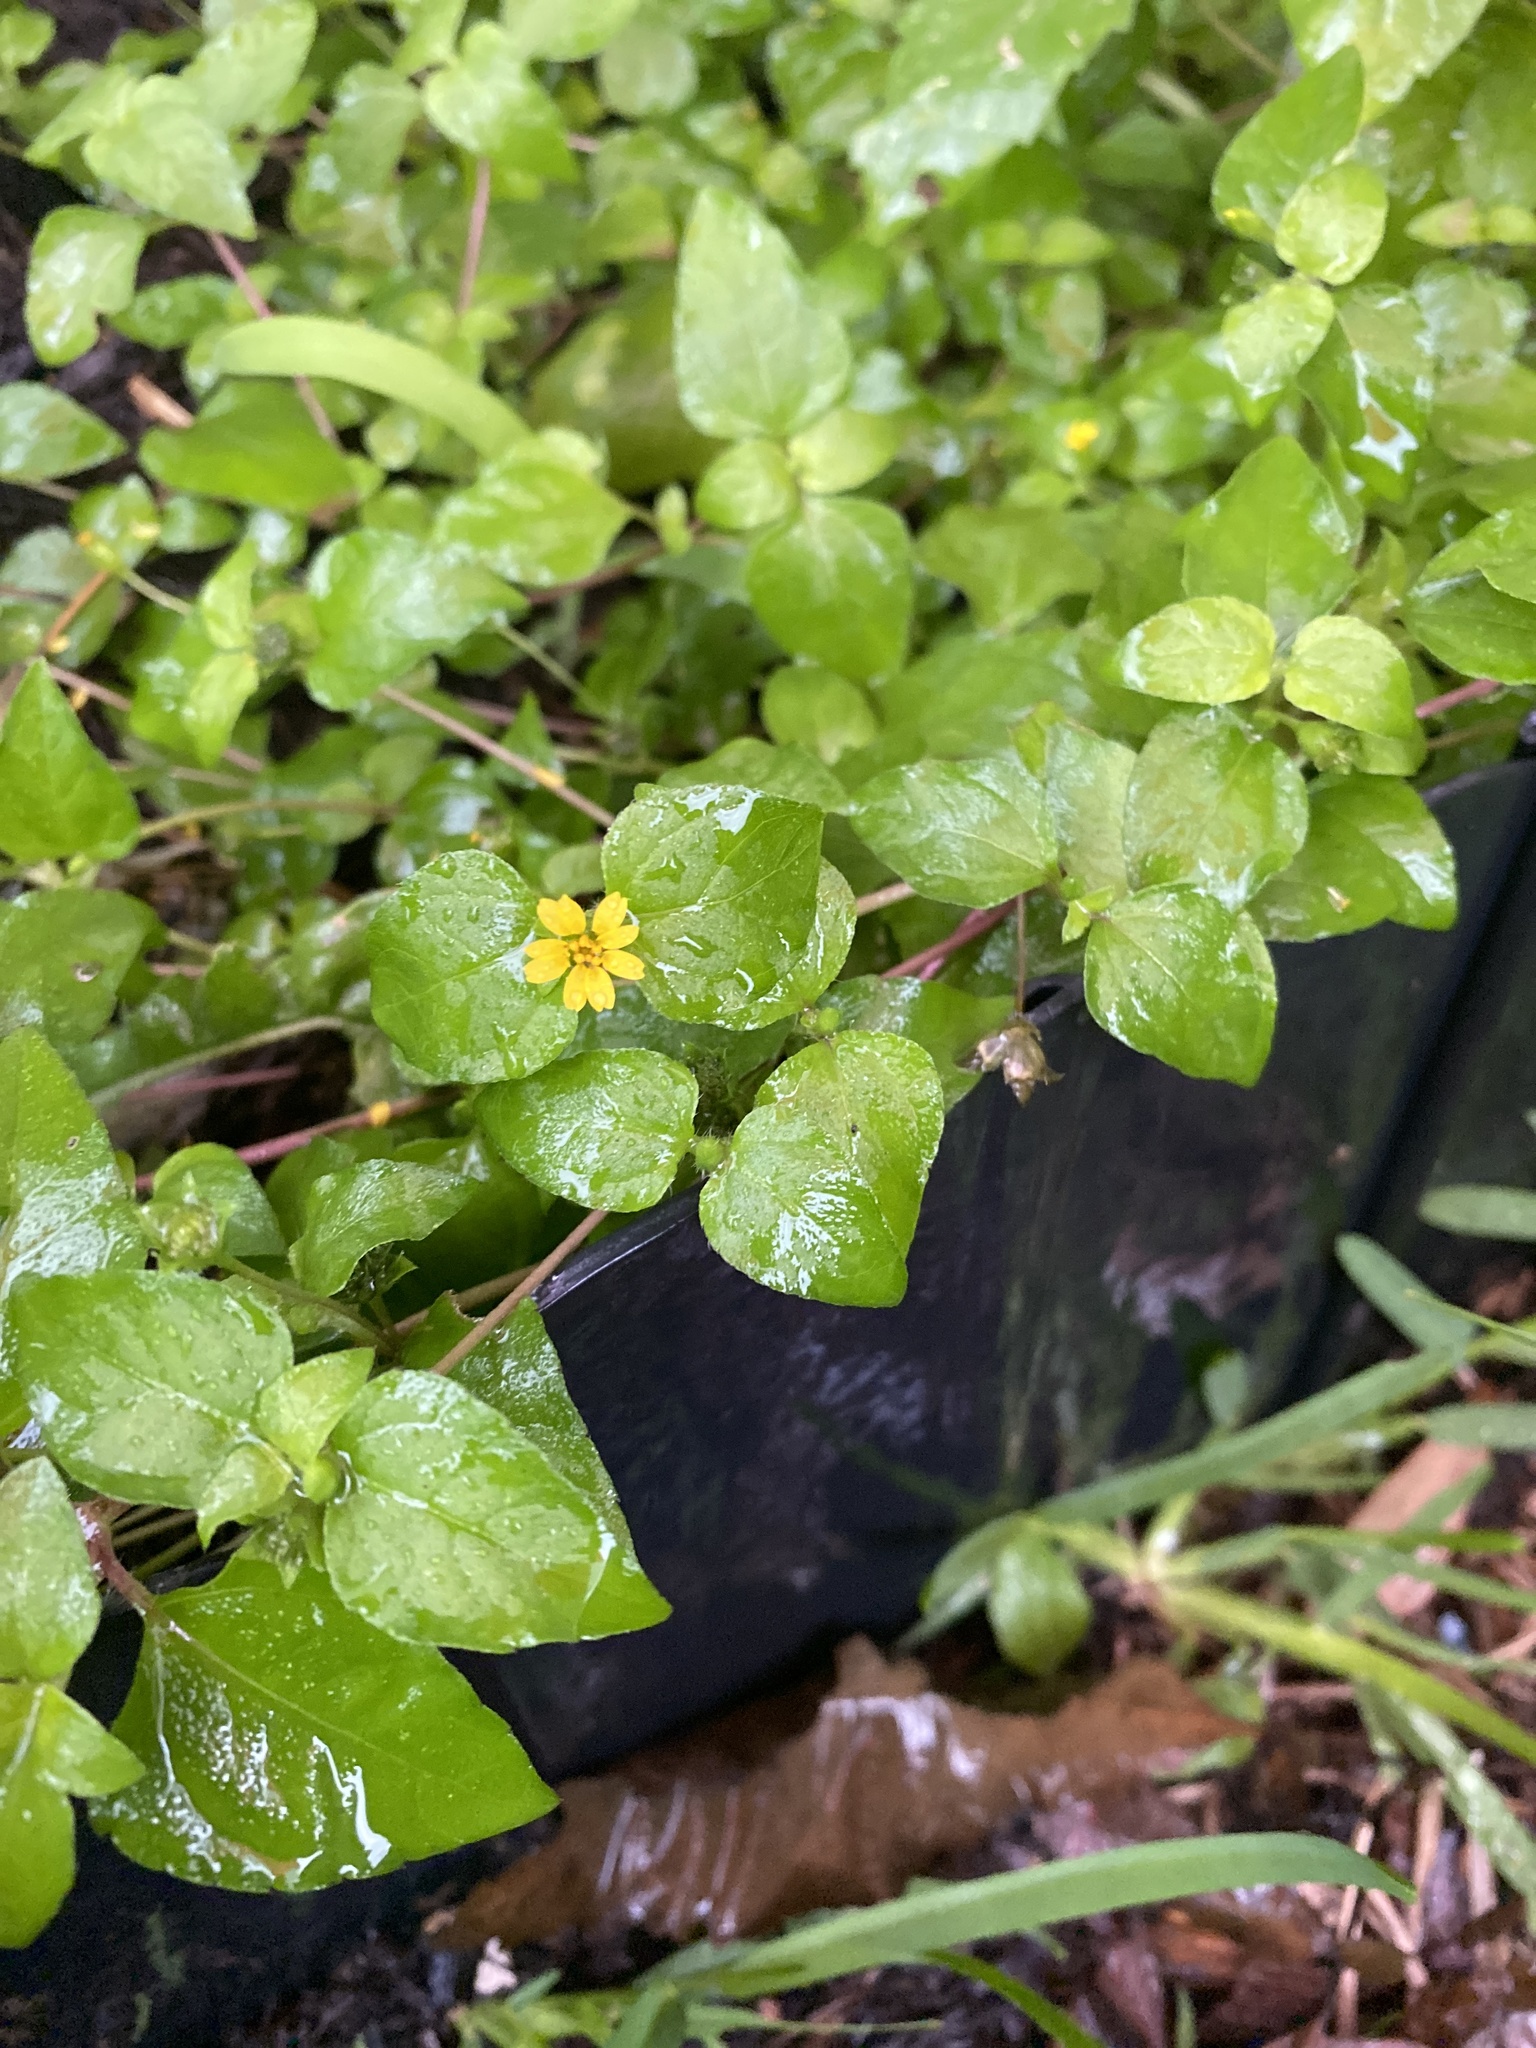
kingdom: Plantae
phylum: Tracheophyta
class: Magnoliopsida
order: Asterales
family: Asteraceae
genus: Calyptocarpus
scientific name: Calyptocarpus vialis
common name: Straggler daisy
